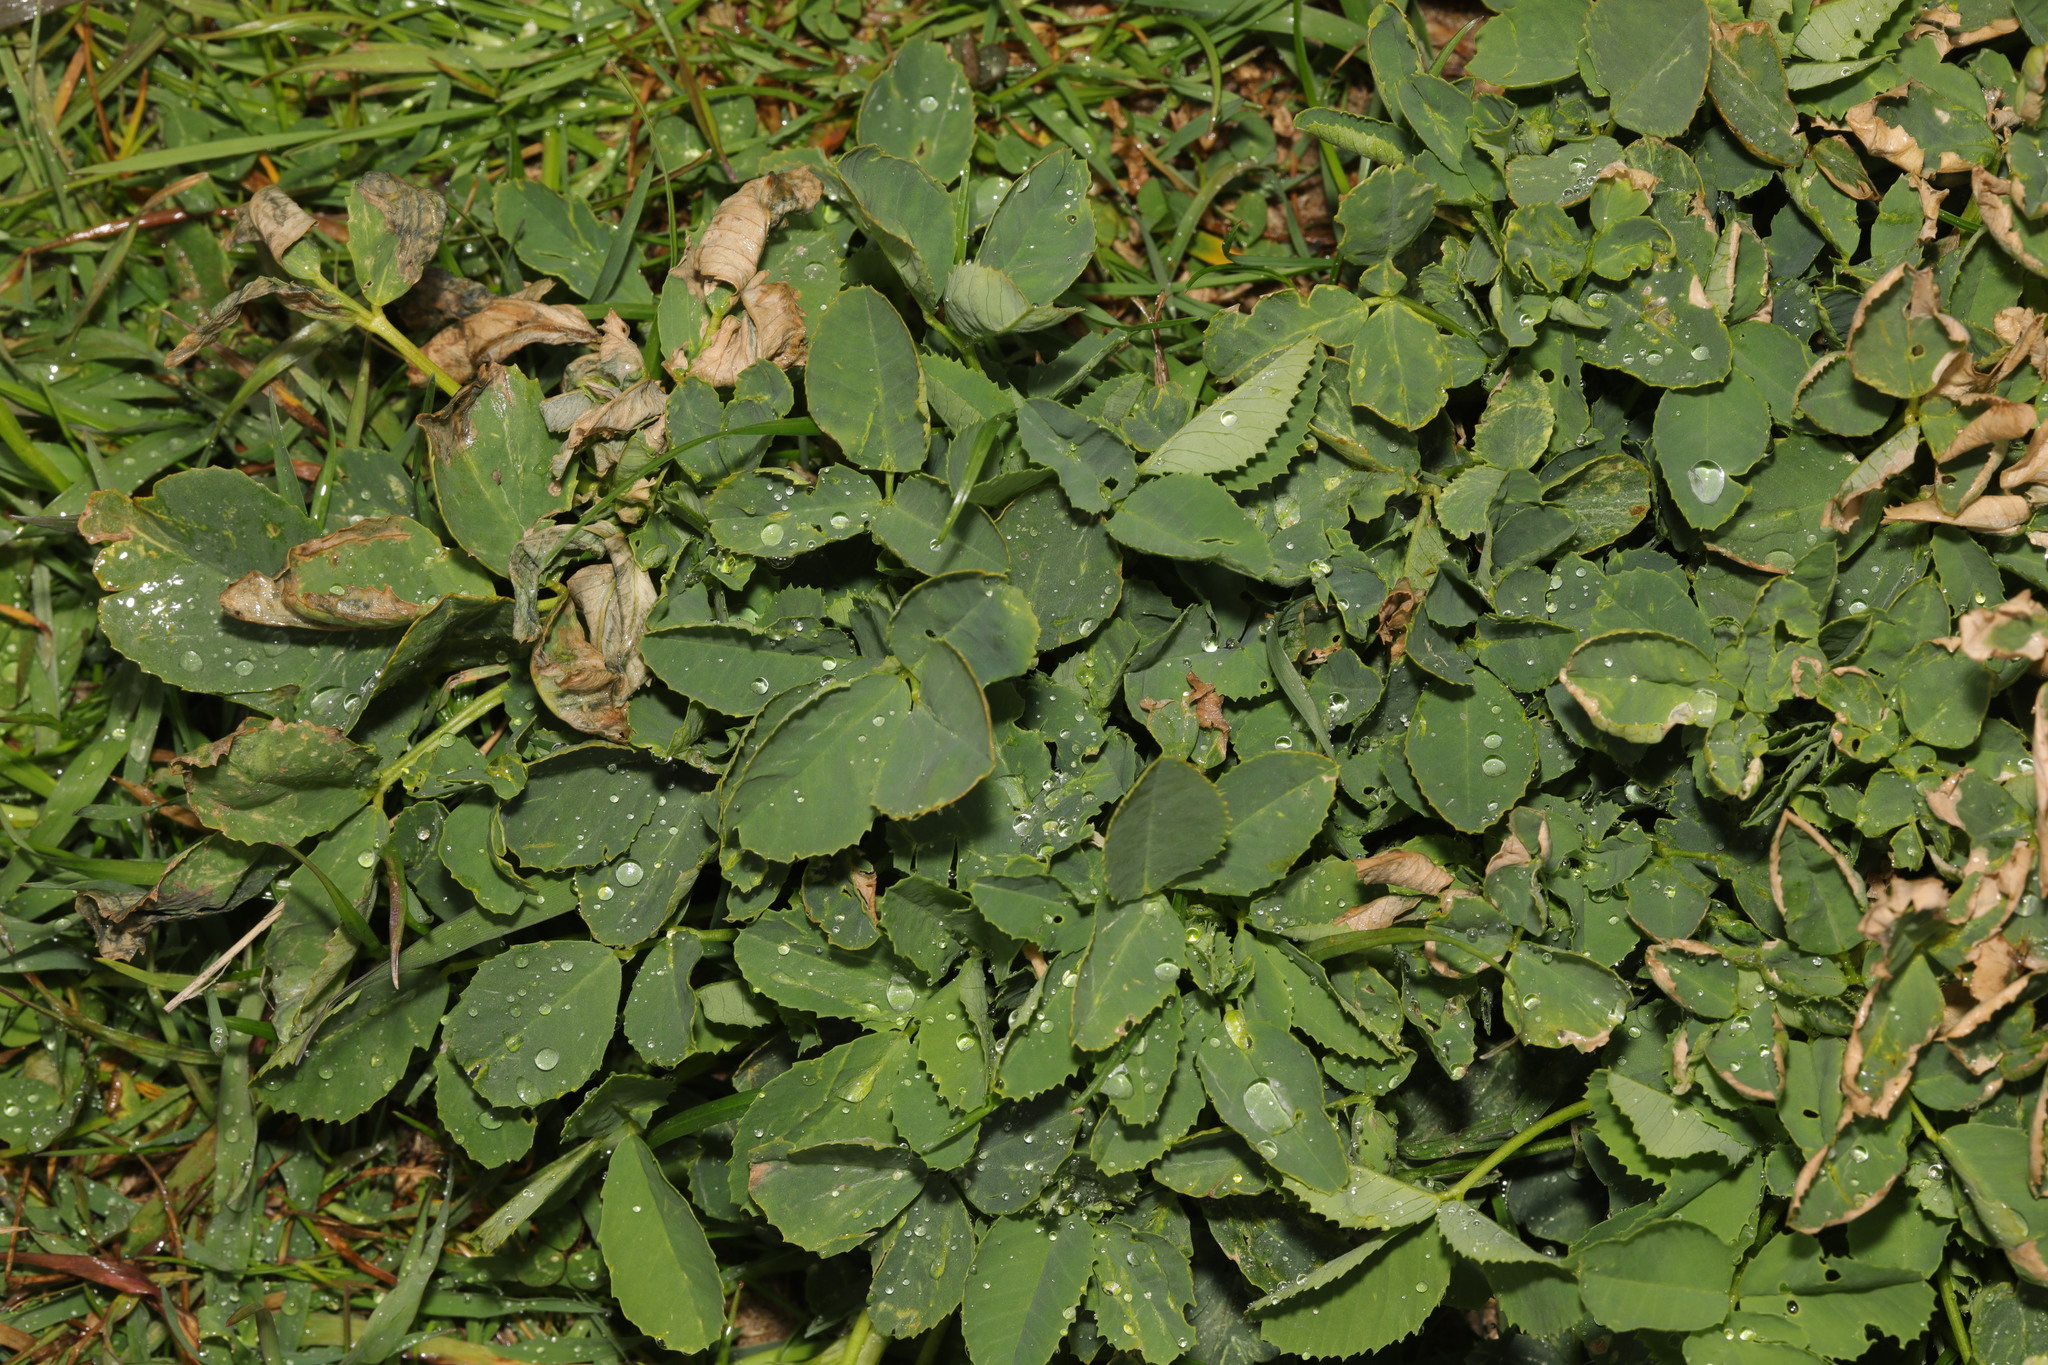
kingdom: Plantae
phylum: Tracheophyta
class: Magnoliopsida
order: Fabales
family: Fabaceae
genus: Trifolium
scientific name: Trifolium repens
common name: White clover
